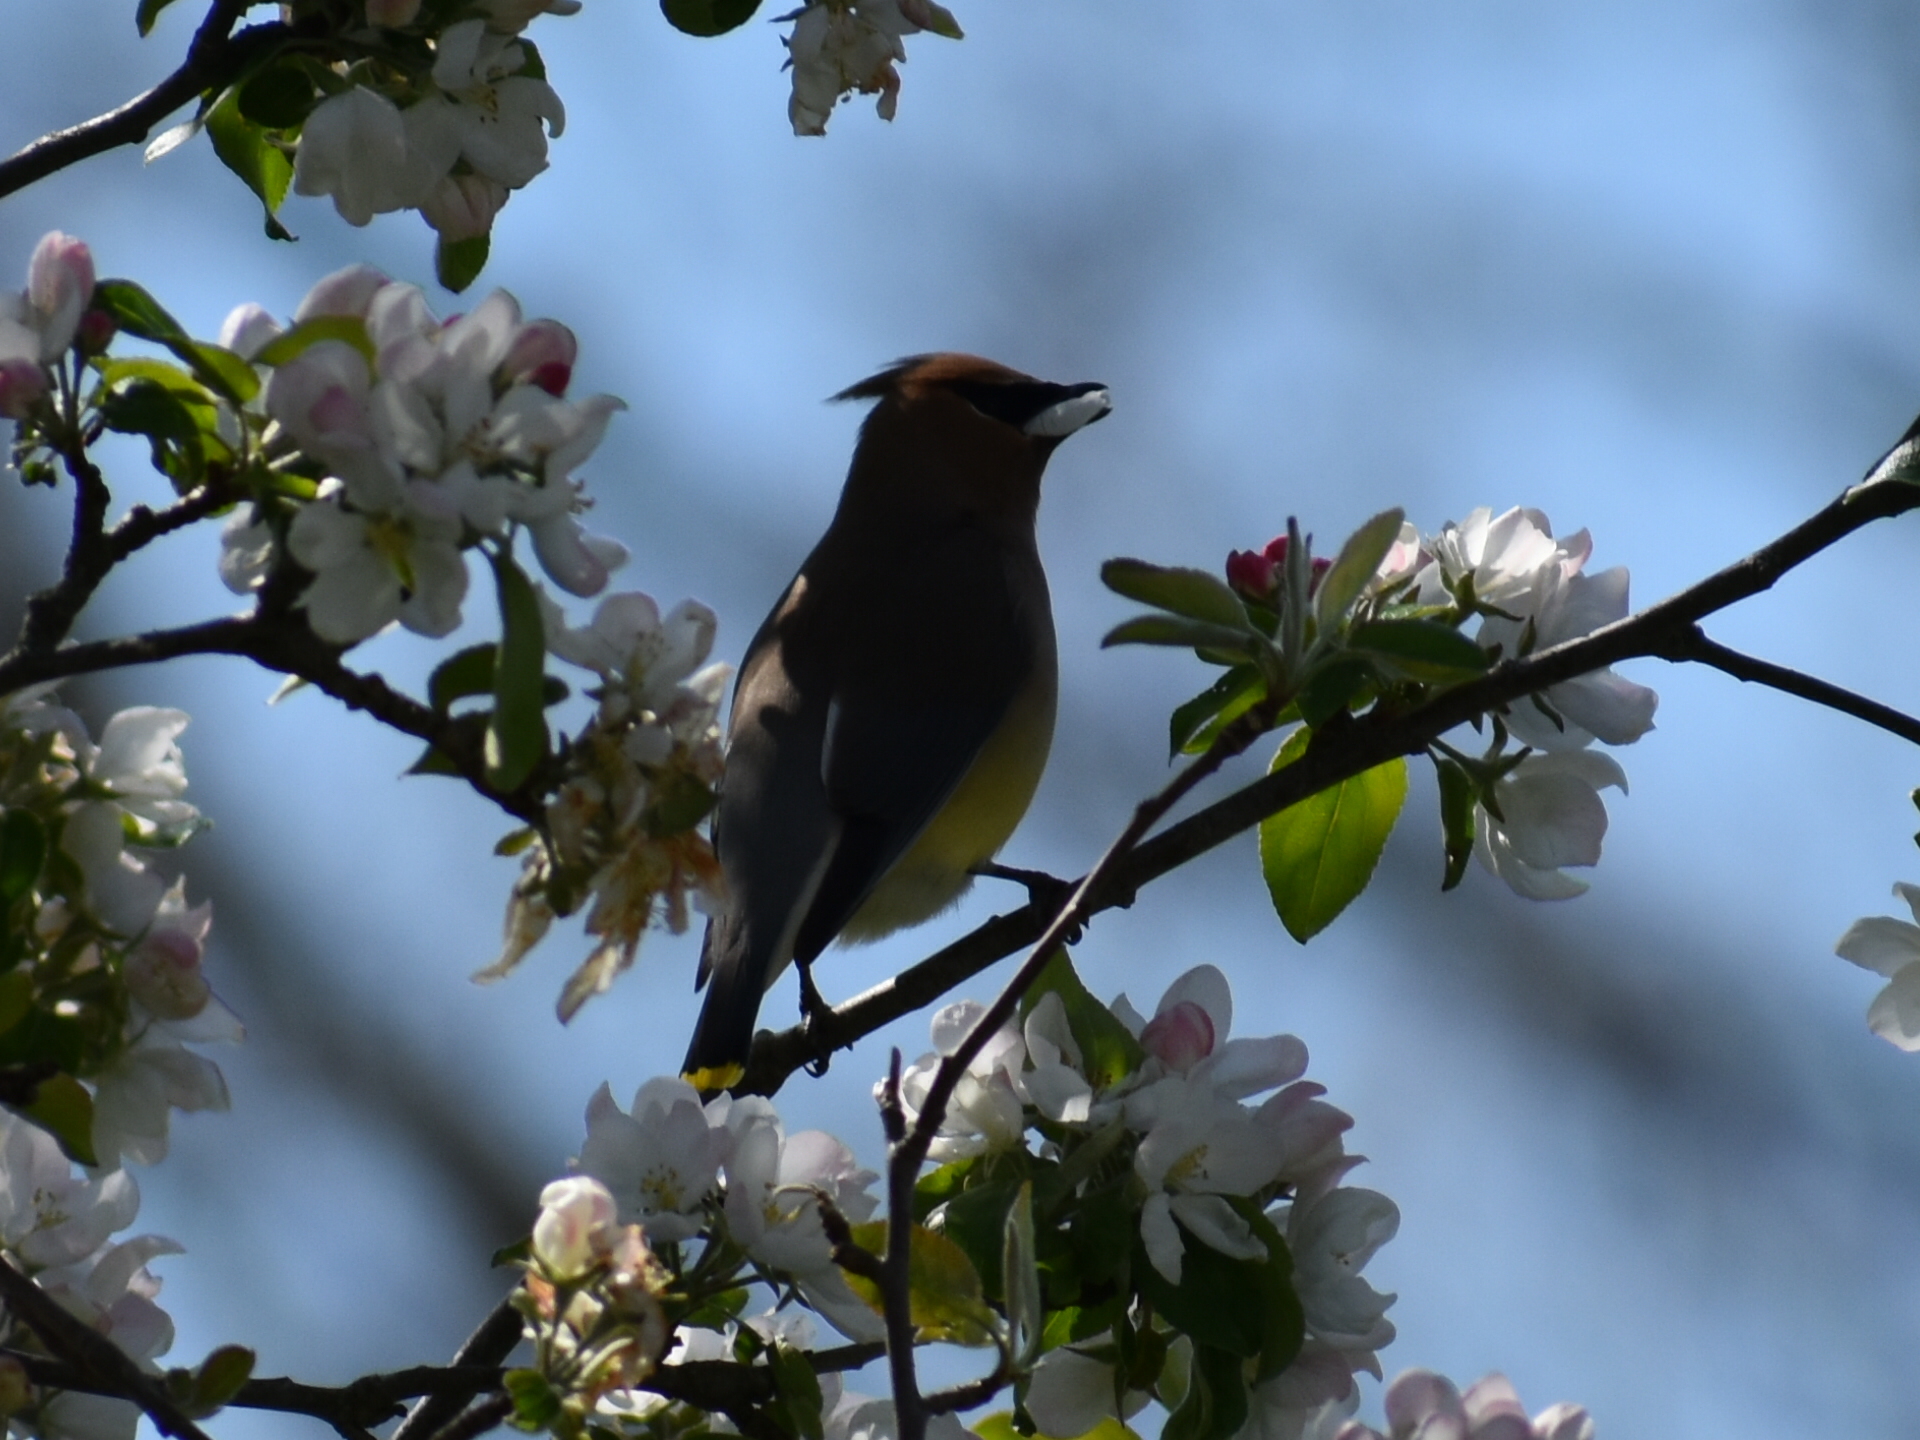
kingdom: Animalia
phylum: Chordata
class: Aves
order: Passeriformes
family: Bombycillidae
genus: Bombycilla
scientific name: Bombycilla cedrorum
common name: Cedar waxwing
